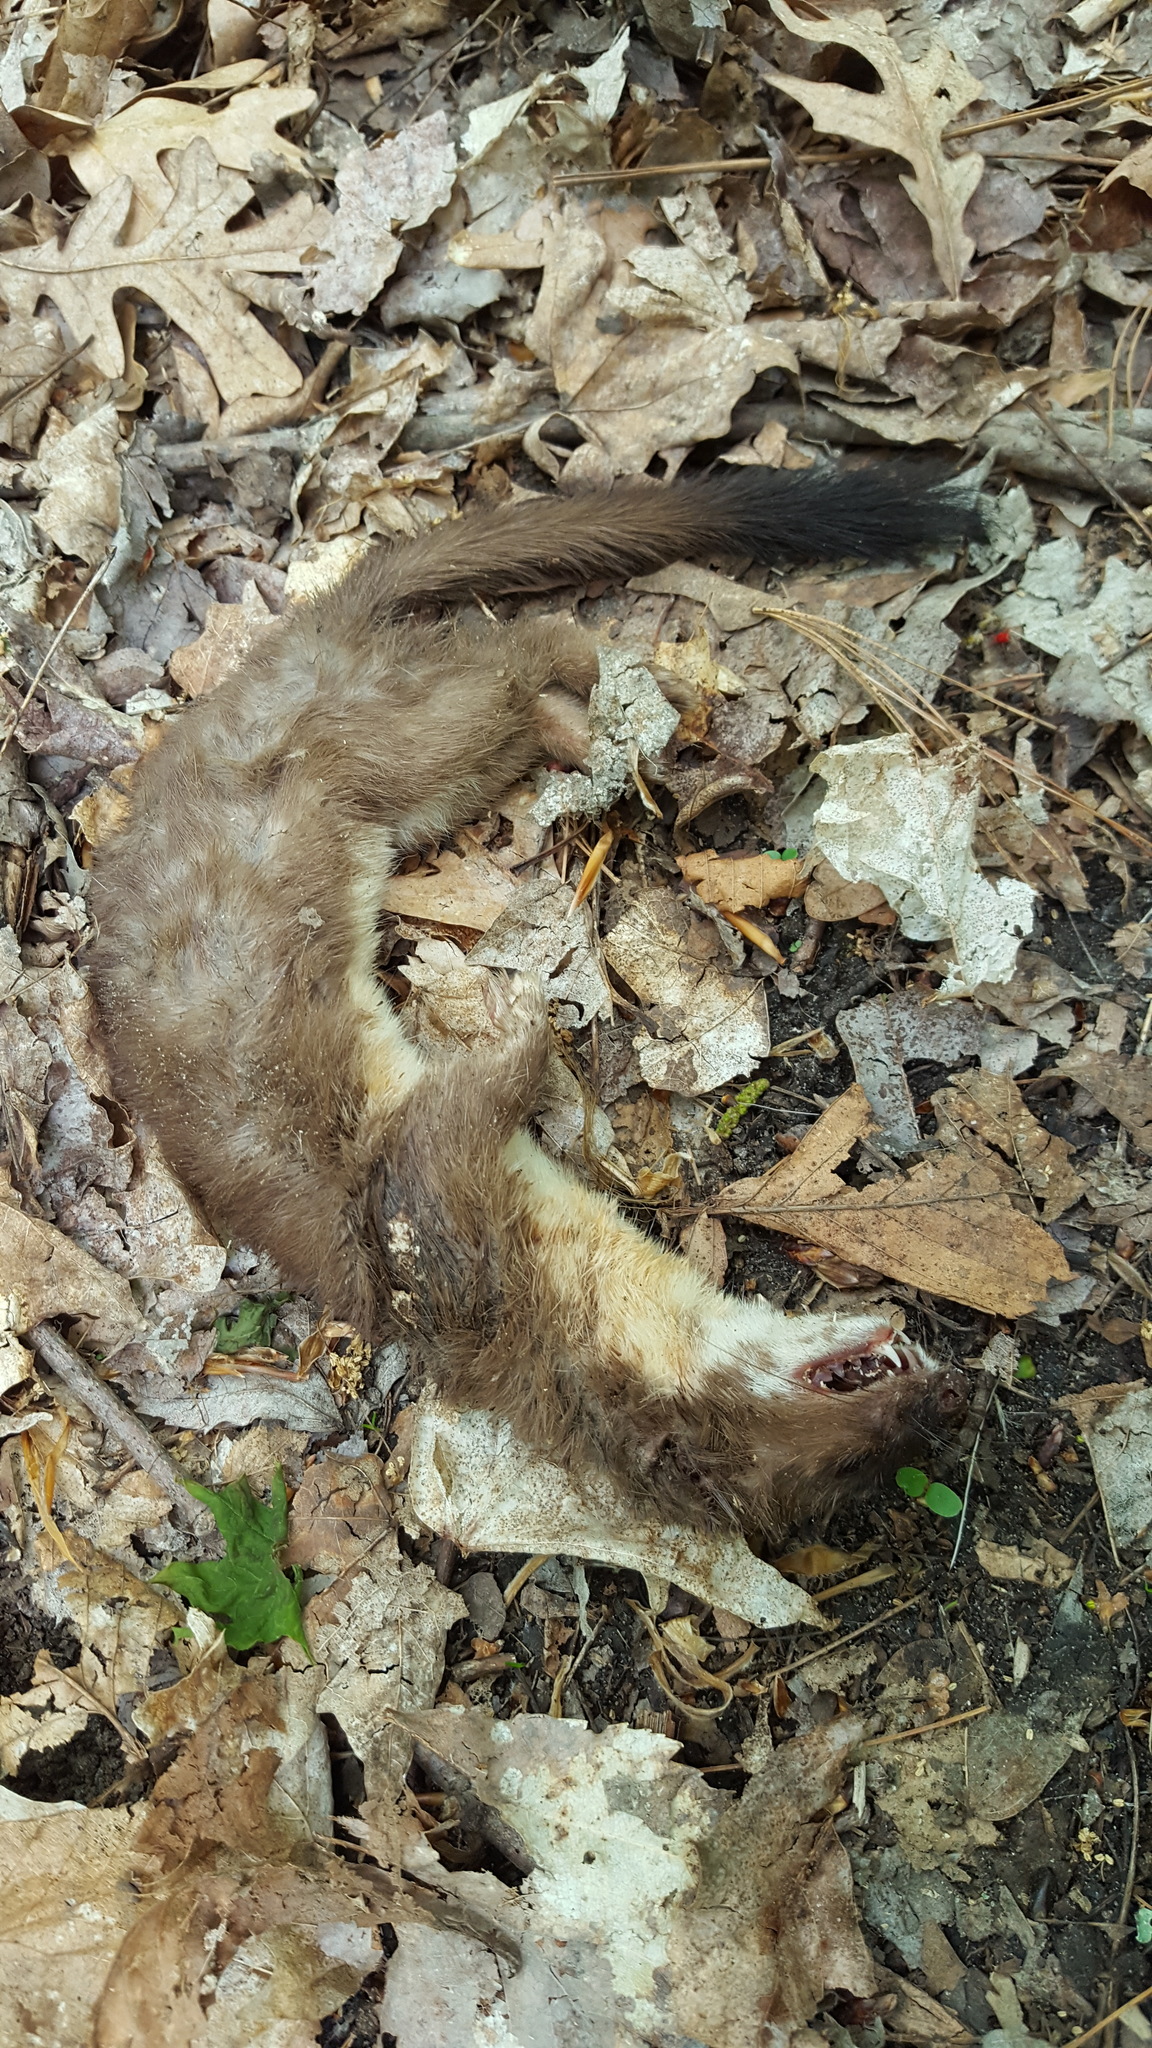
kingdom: Animalia
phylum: Chordata
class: Mammalia
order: Carnivora
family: Mustelidae
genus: Mustela
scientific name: Mustela
